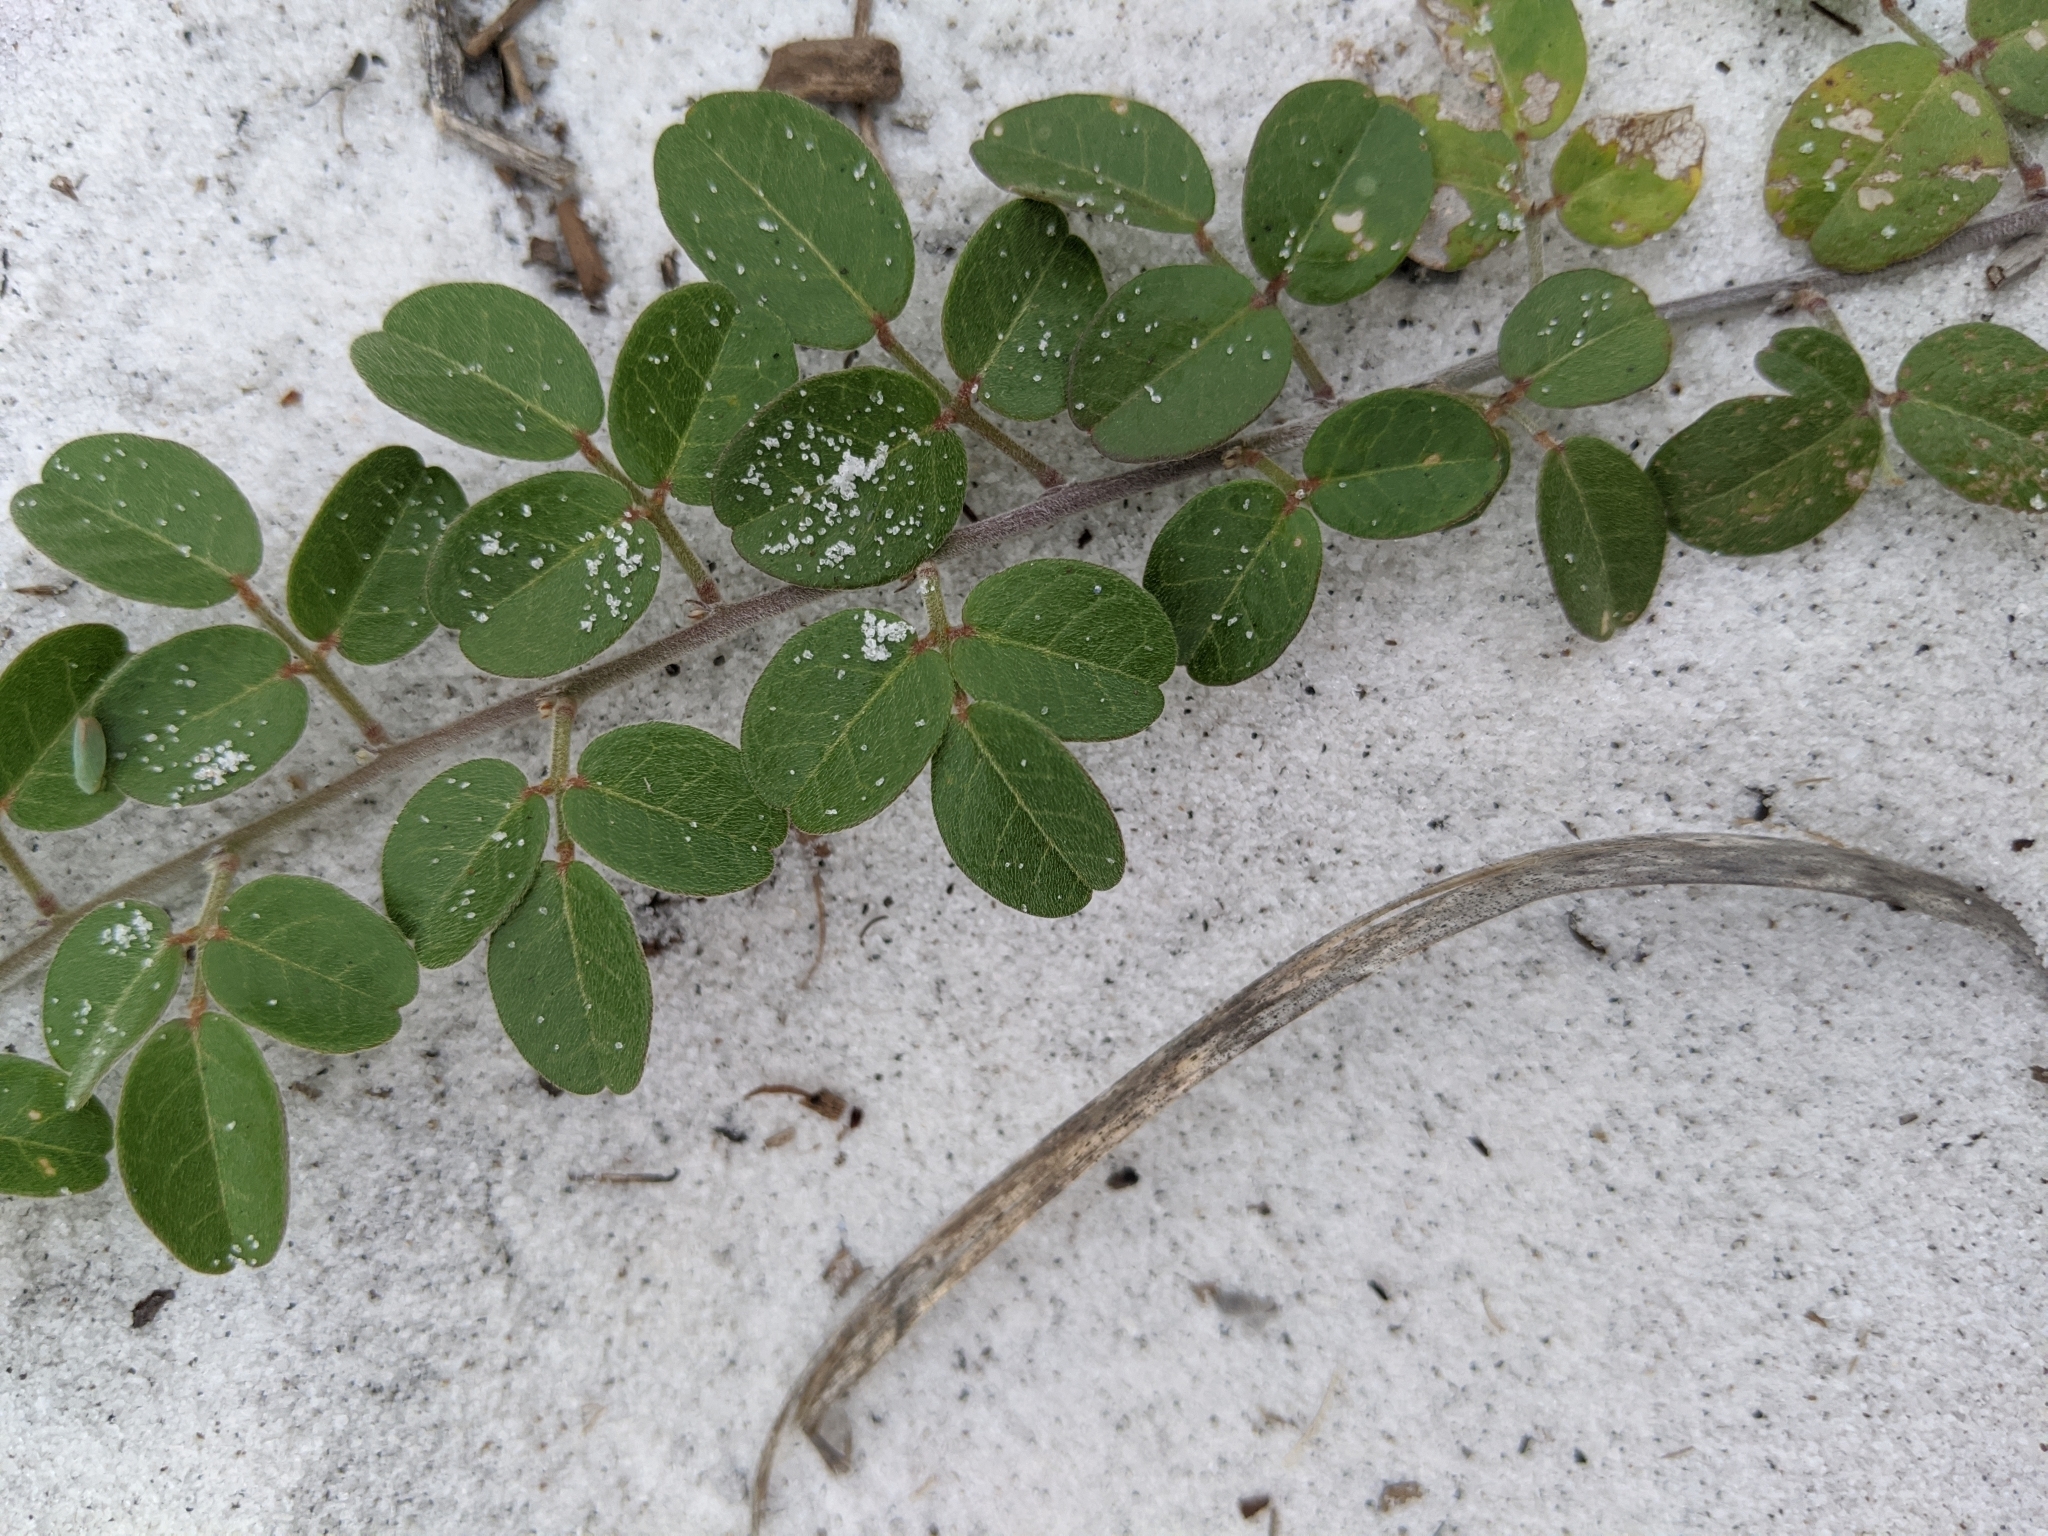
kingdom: Plantae
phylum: Tracheophyta
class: Magnoliopsida
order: Fabales
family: Fabaceae
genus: Galactia
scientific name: Galactia microphylla
